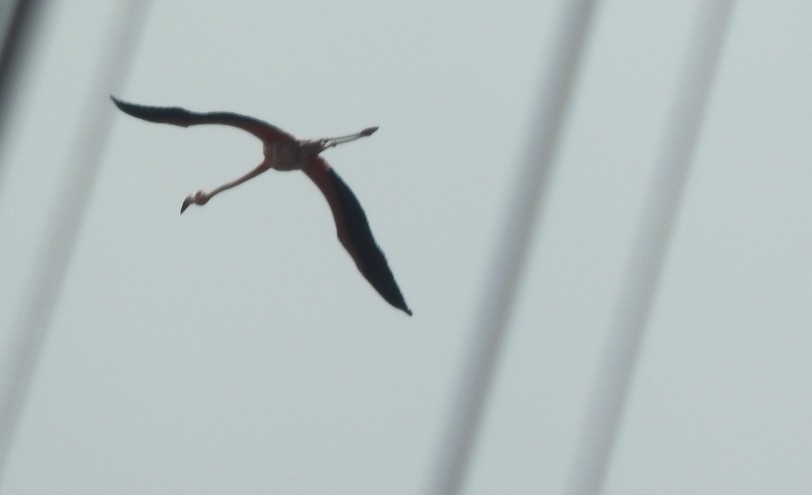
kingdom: Animalia
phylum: Chordata
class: Aves
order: Phoenicopteriformes
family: Phoenicopteridae
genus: Phoenicopterus
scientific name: Phoenicopterus ruber
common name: American flamingo
